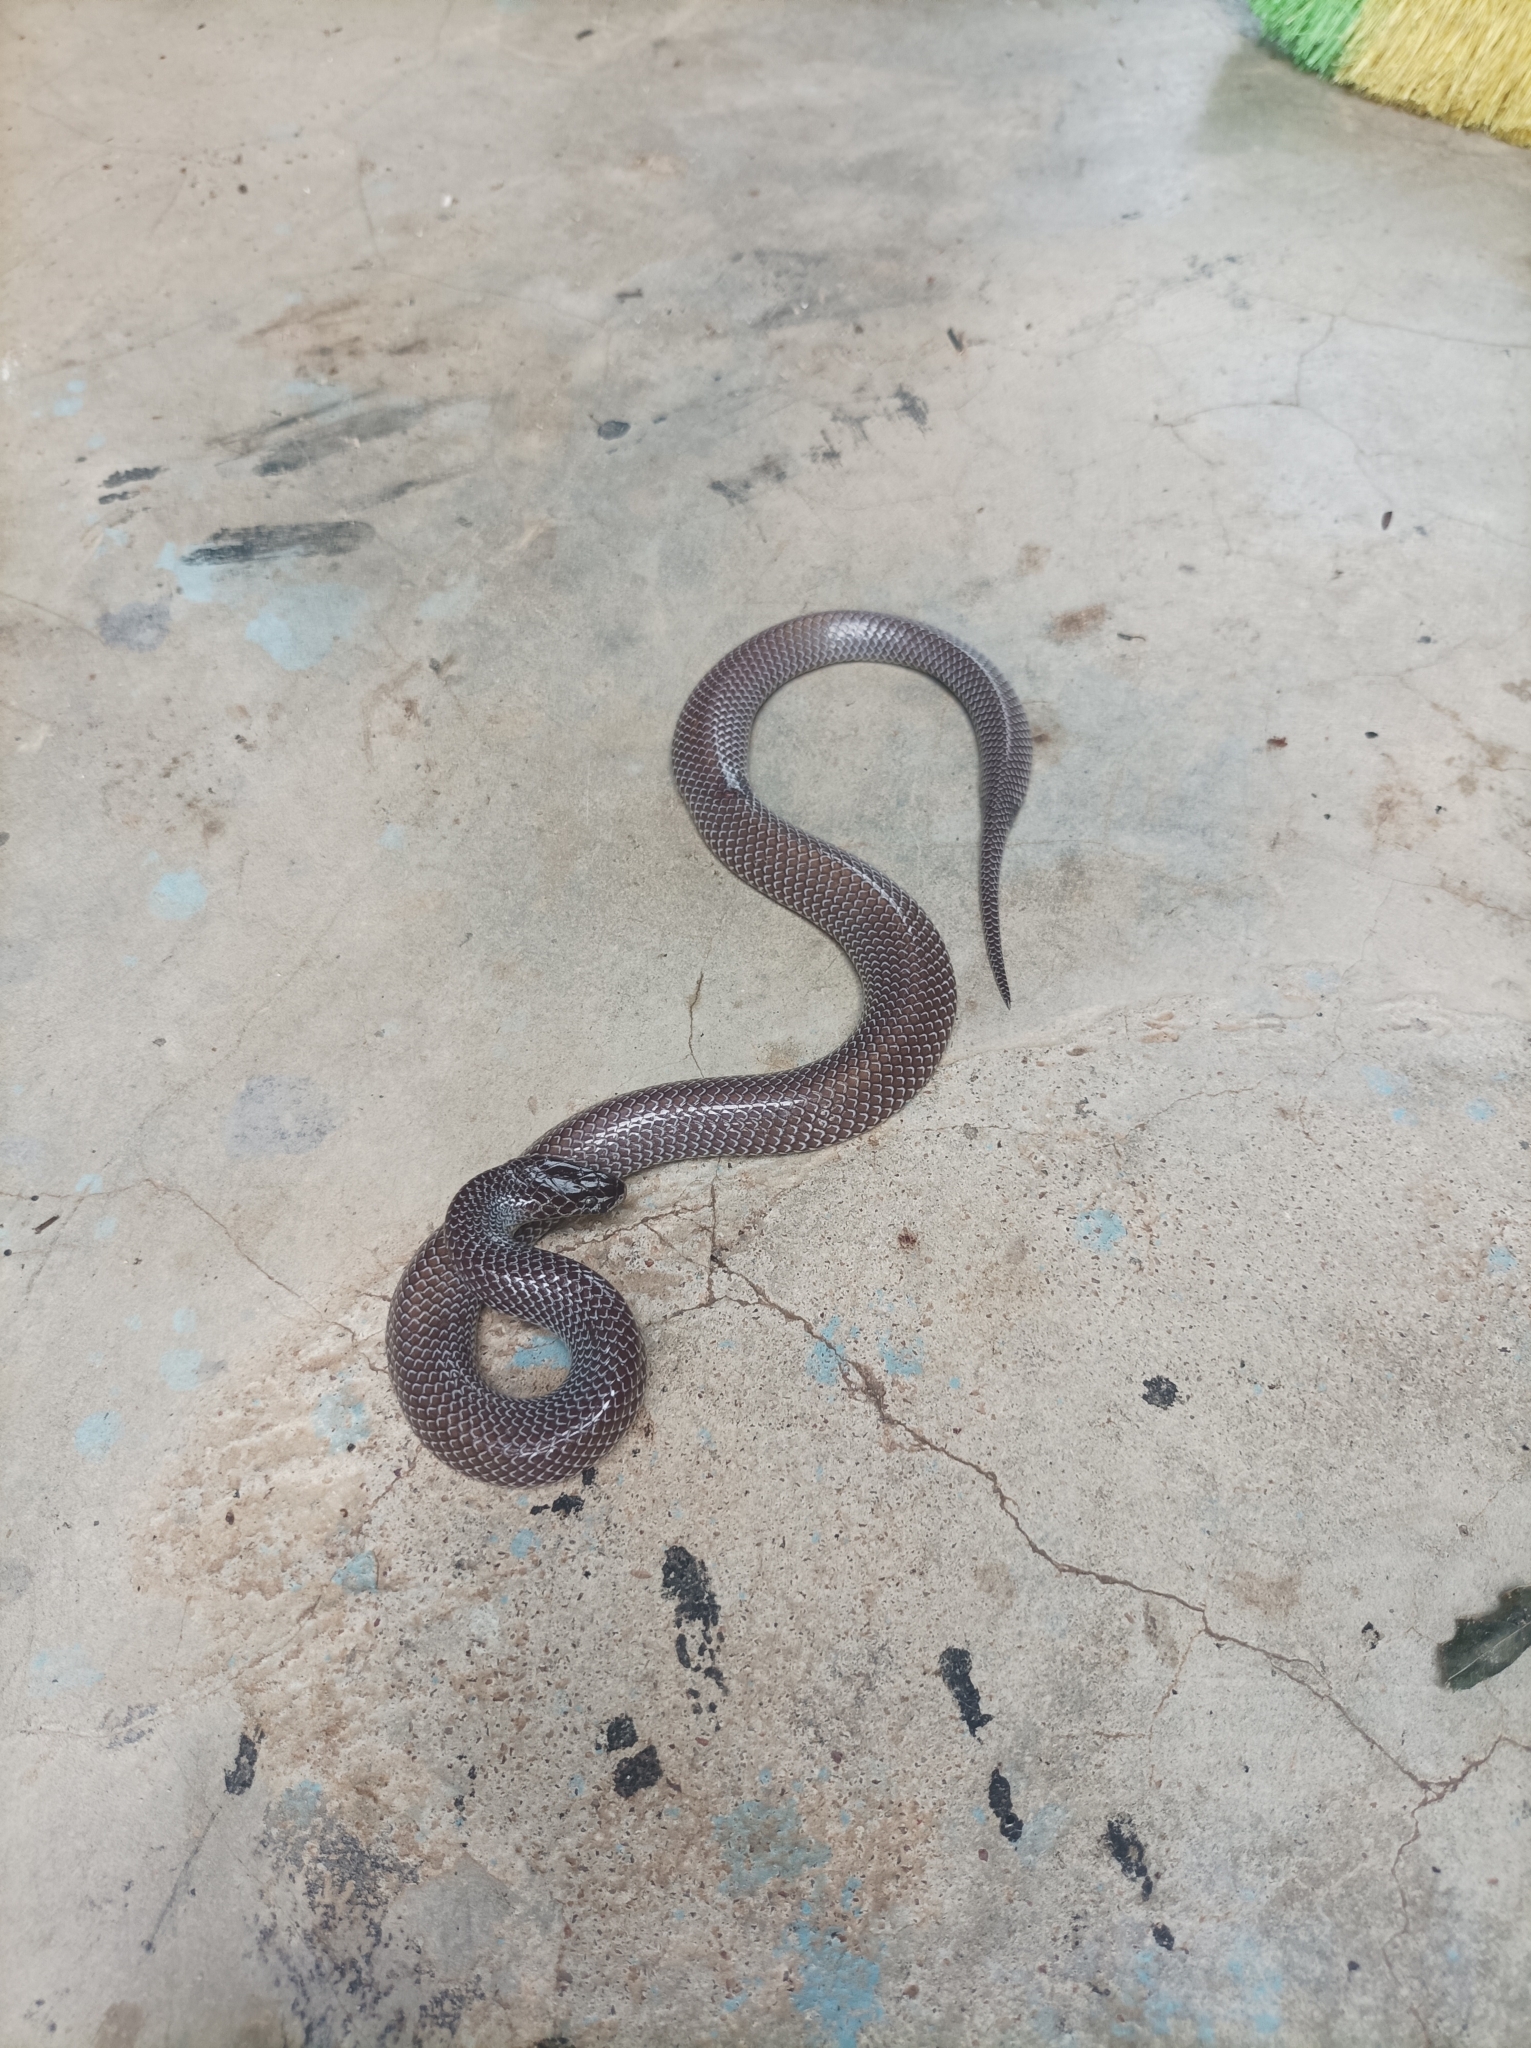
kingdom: Animalia
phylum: Chordata
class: Squamata
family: Lamprophiidae
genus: Lycophidion
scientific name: Lycophidion capense
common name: Cape wolf snake
